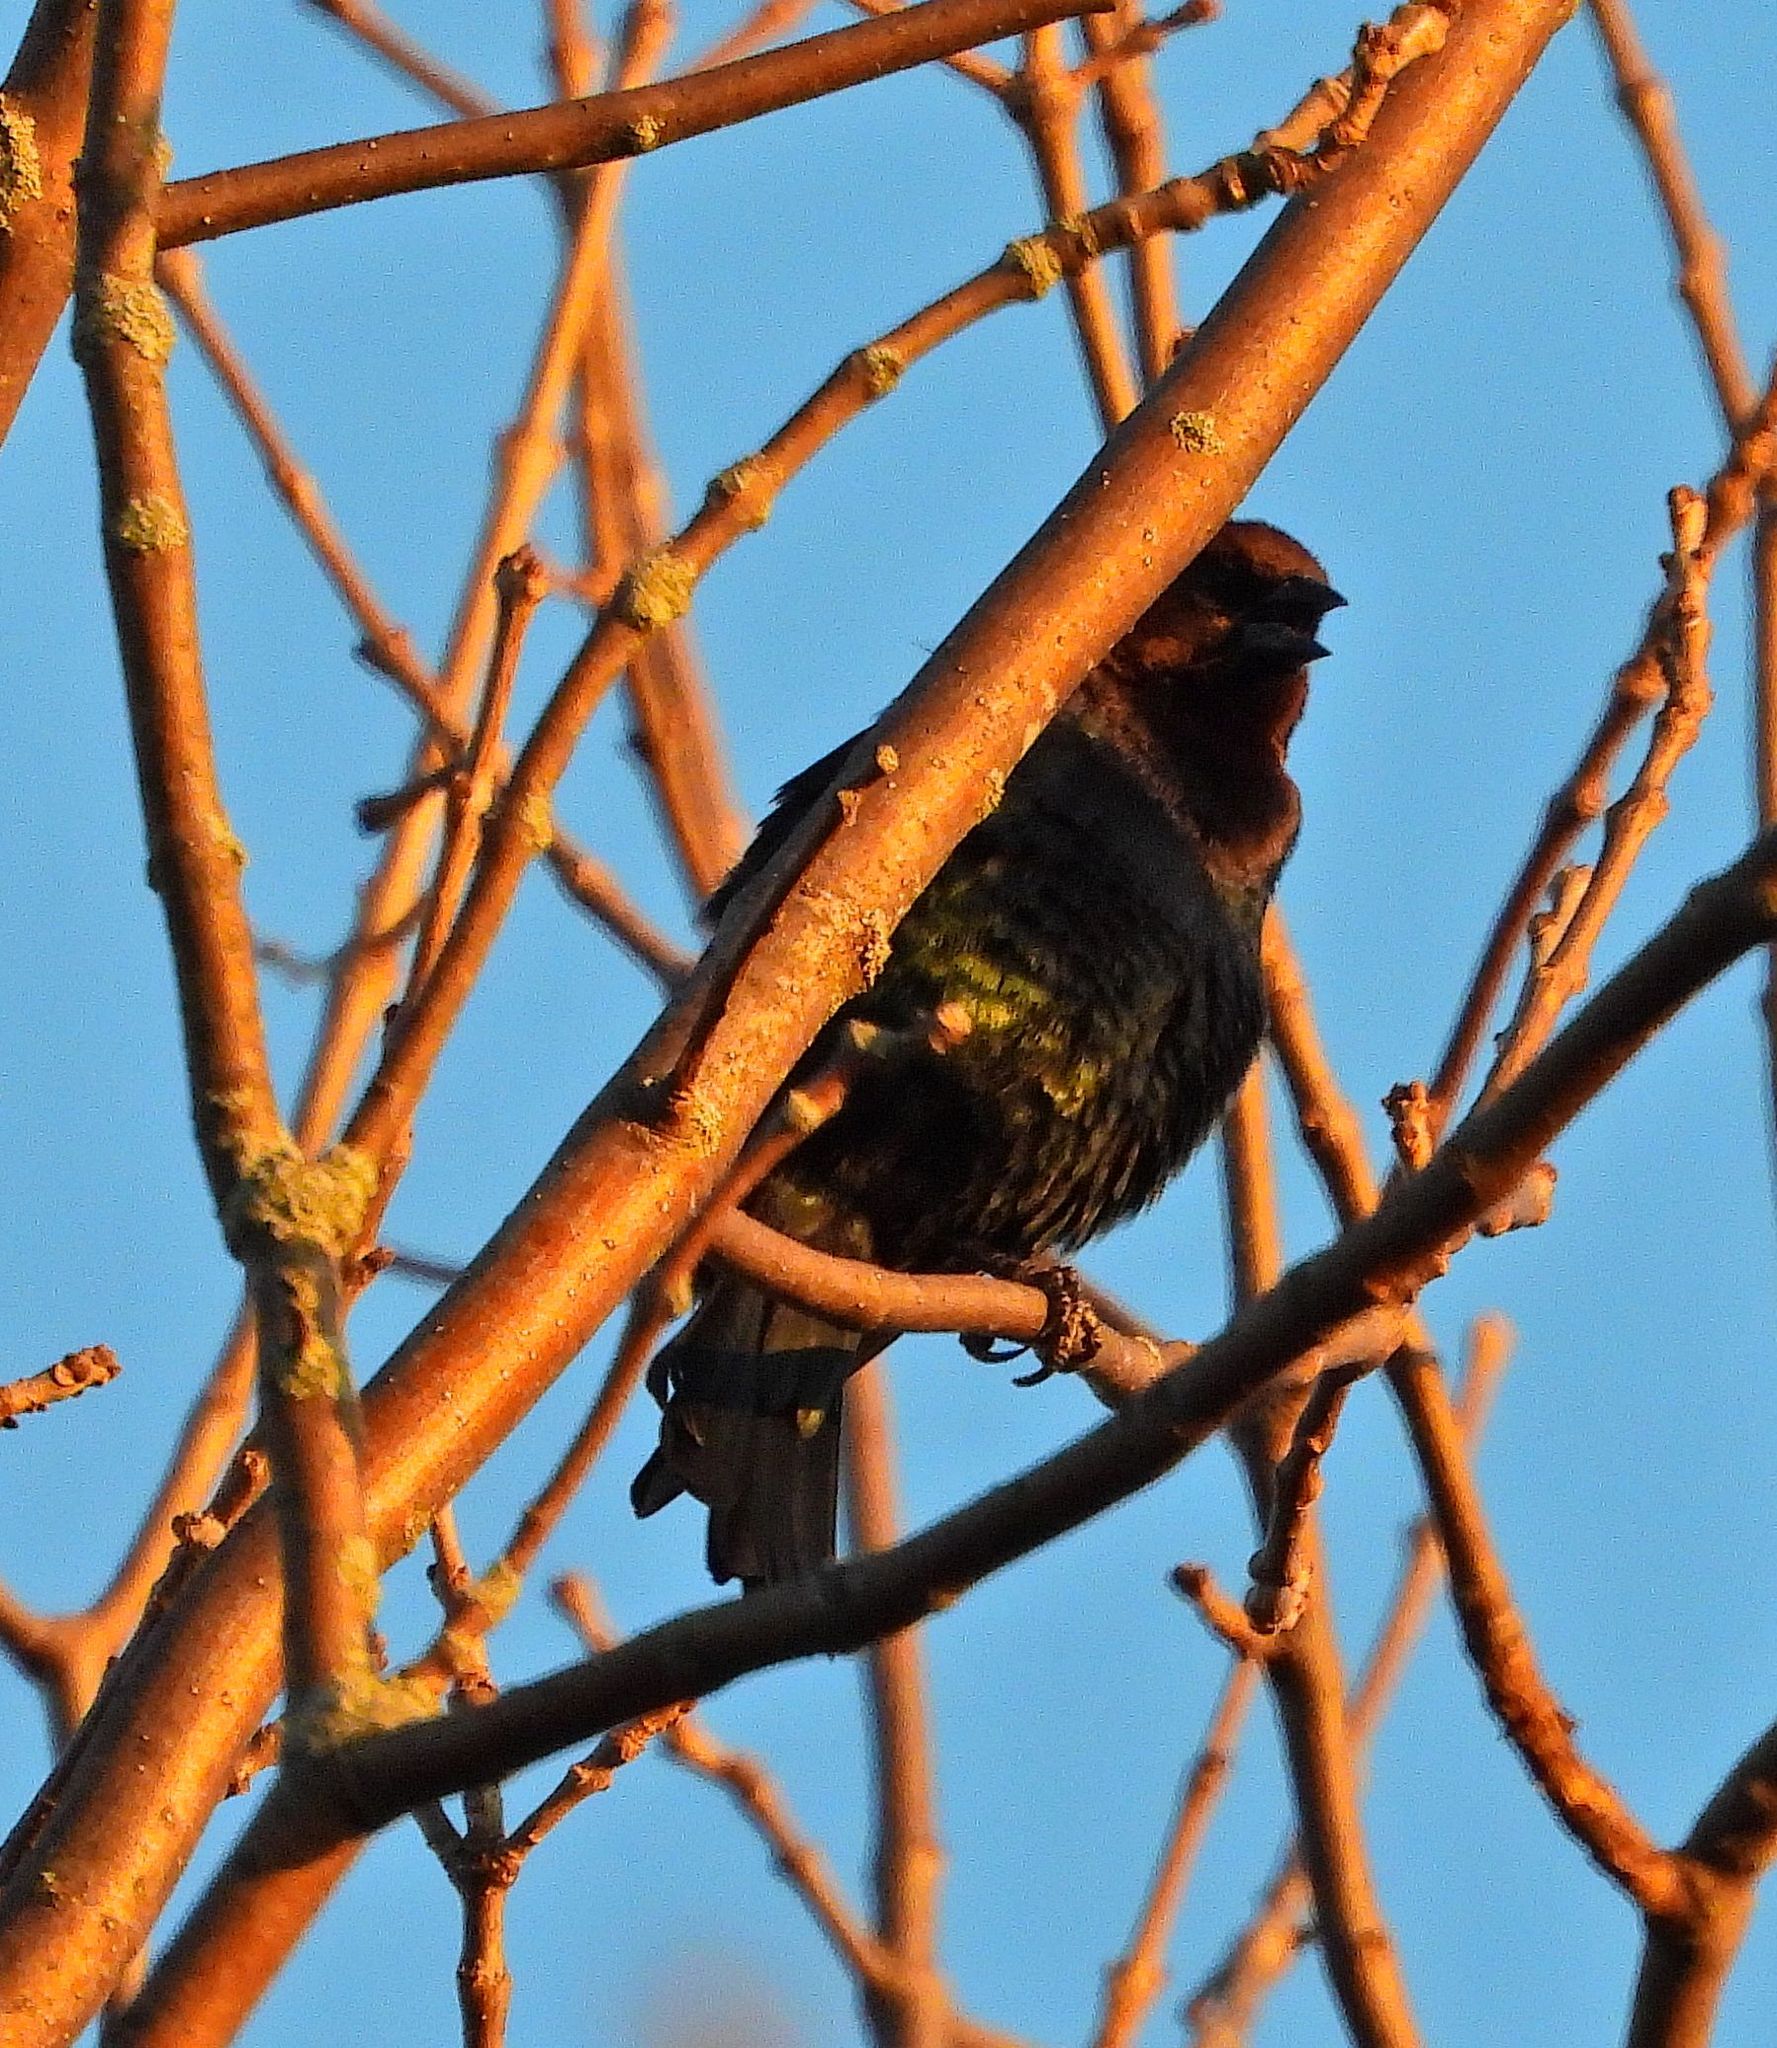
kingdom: Animalia
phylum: Chordata
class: Aves
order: Passeriformes
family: Icteridae
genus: Molothrus
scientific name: Molothrus ater
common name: Brown-headed cowbird
